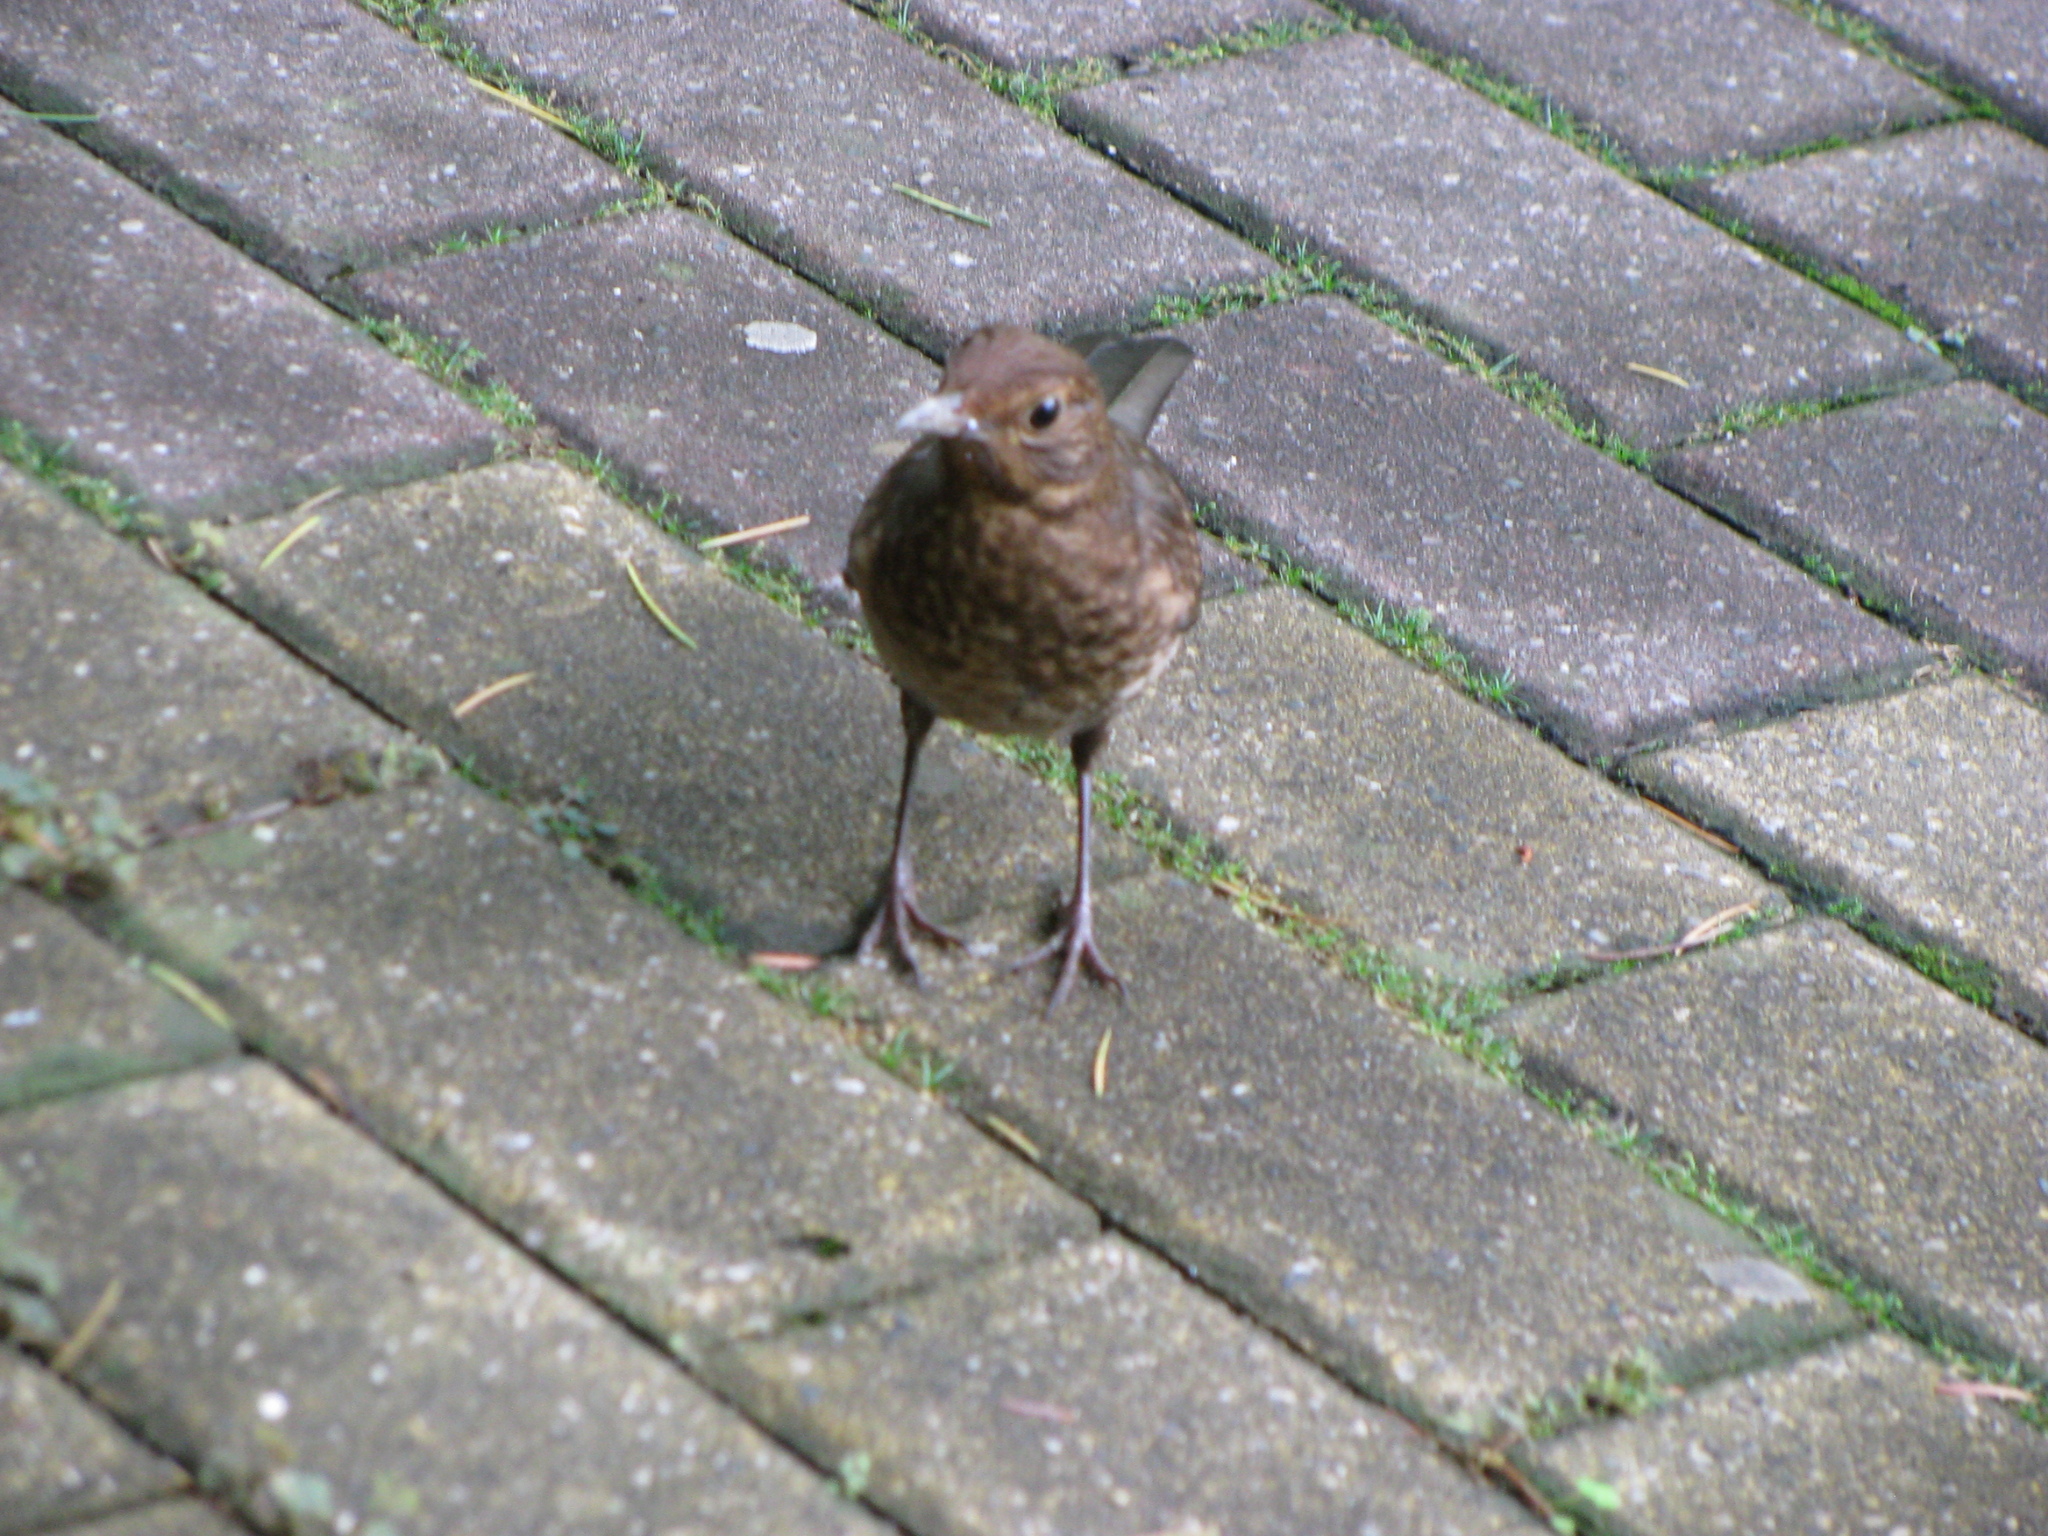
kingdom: Animalia
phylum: Chordata
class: Aves
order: Passeriformes
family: Turdidae
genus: Turdus
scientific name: Turdus merula
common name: Common blackbird
